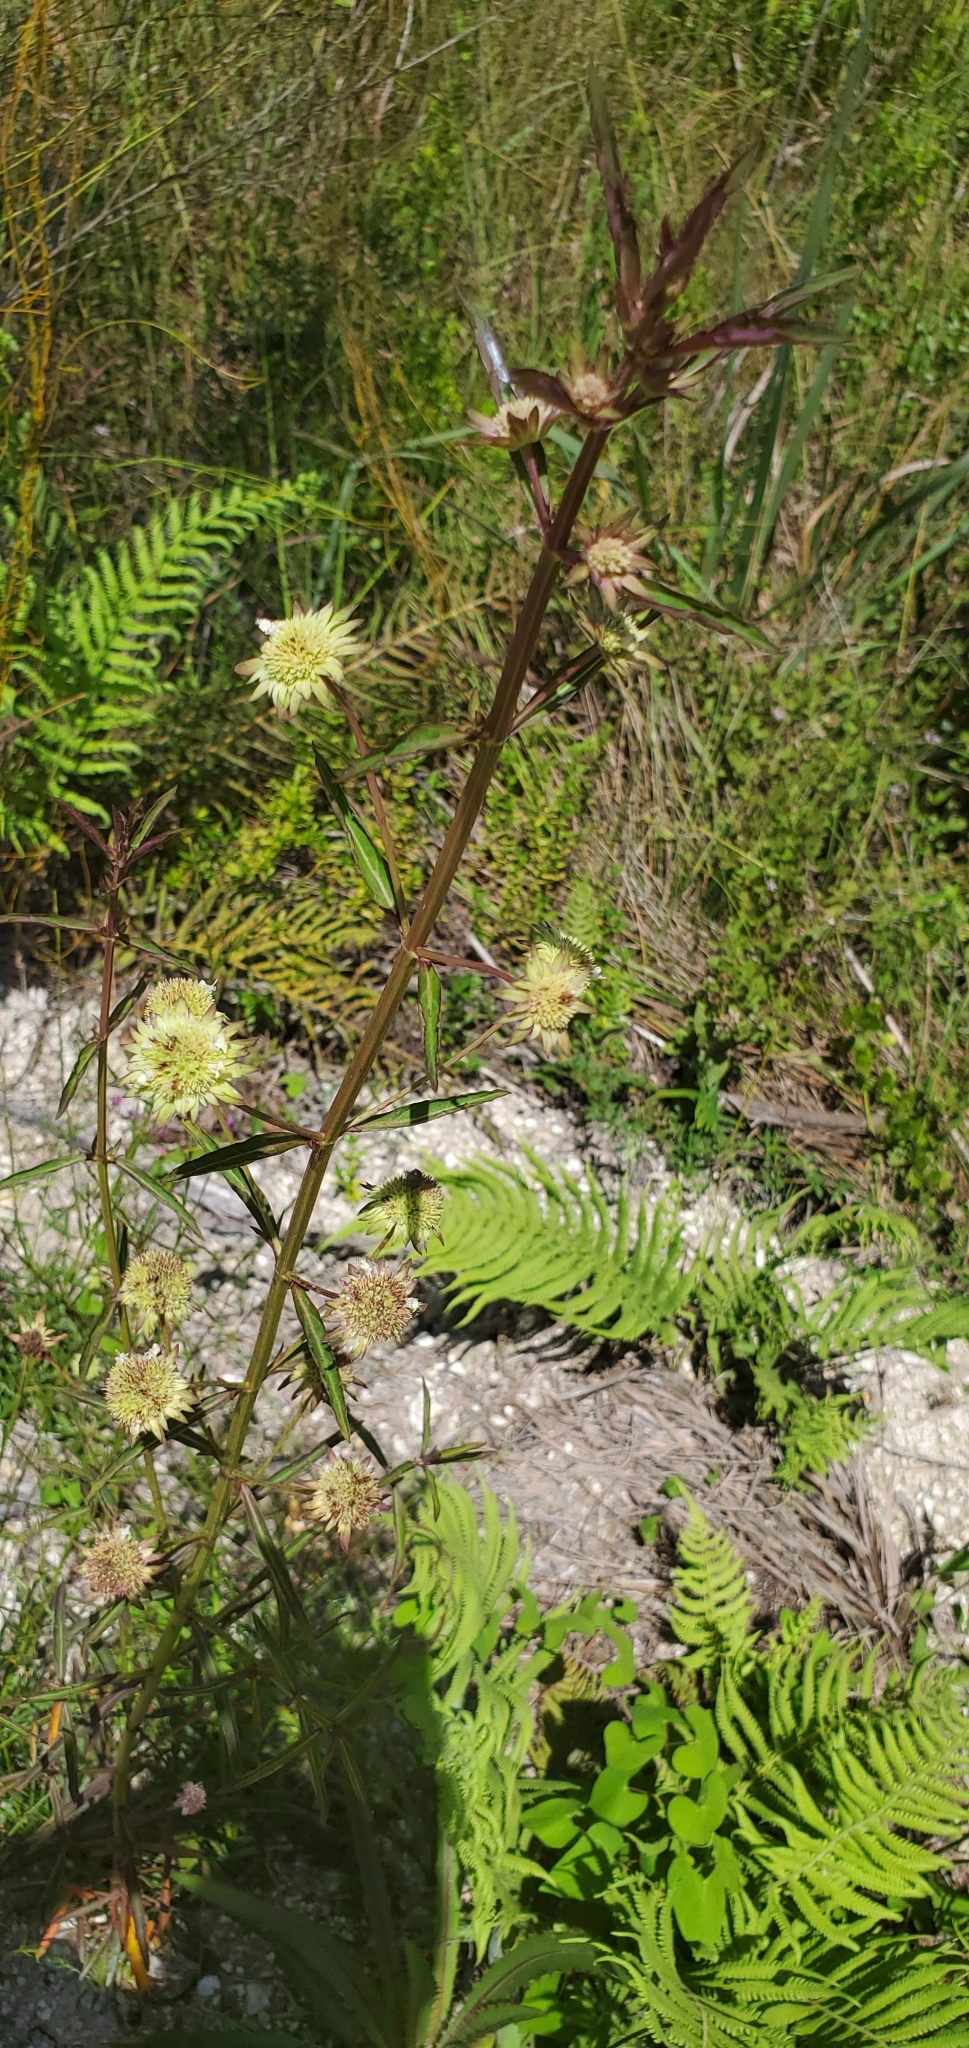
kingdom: Plantae
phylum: Tracheophyta
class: Magnoliopsida
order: Lamiales
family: Lamiaceae
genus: Hyptis
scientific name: Hyptis alata
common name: Cluster bush-mint
